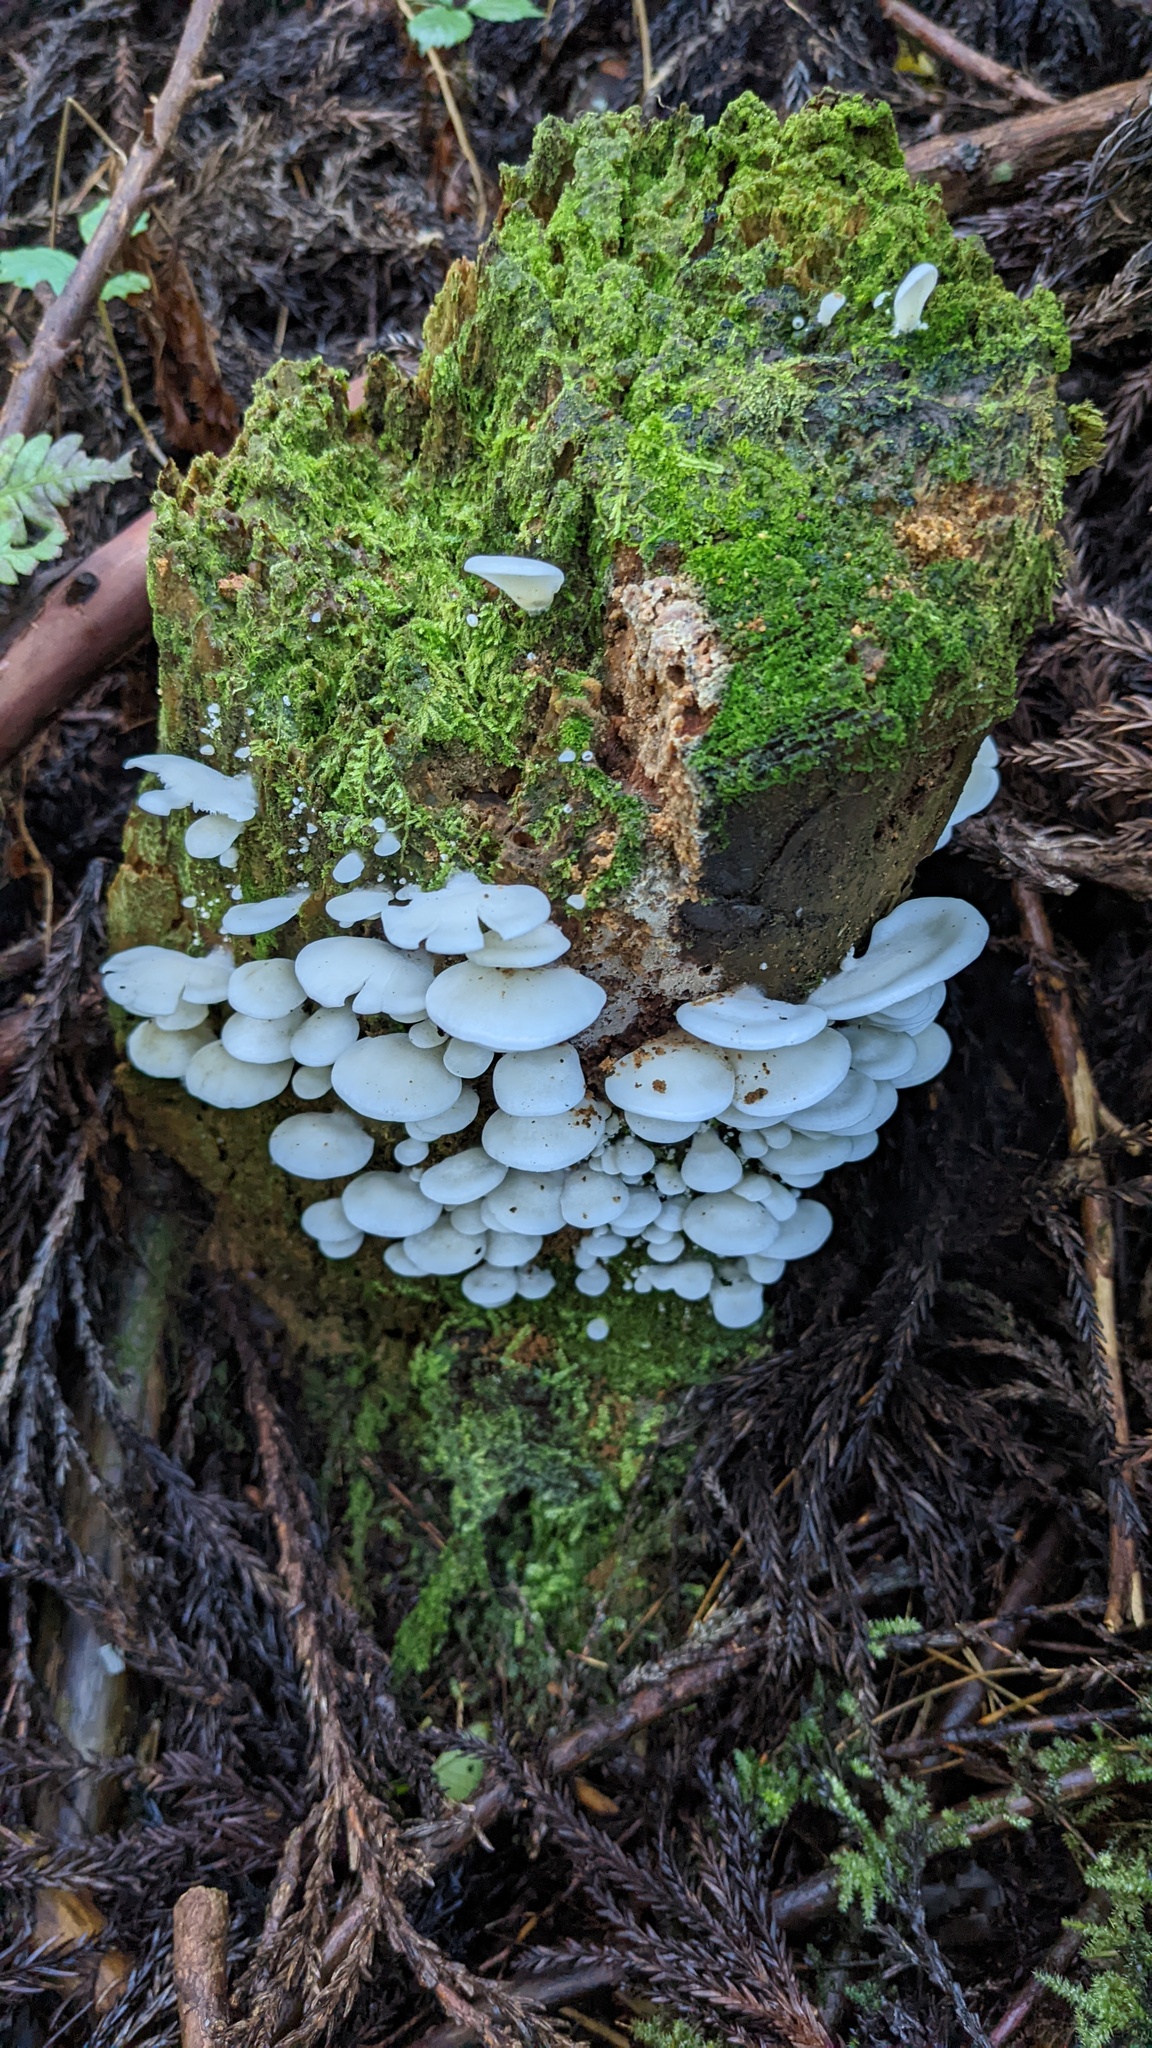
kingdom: Fungi
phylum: Basidiomycota
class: Agaricomycetes
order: Agaricales
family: Marasmiaceae
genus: Pleurocybella
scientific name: Pleurocybella porrigens
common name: Angel's wings
